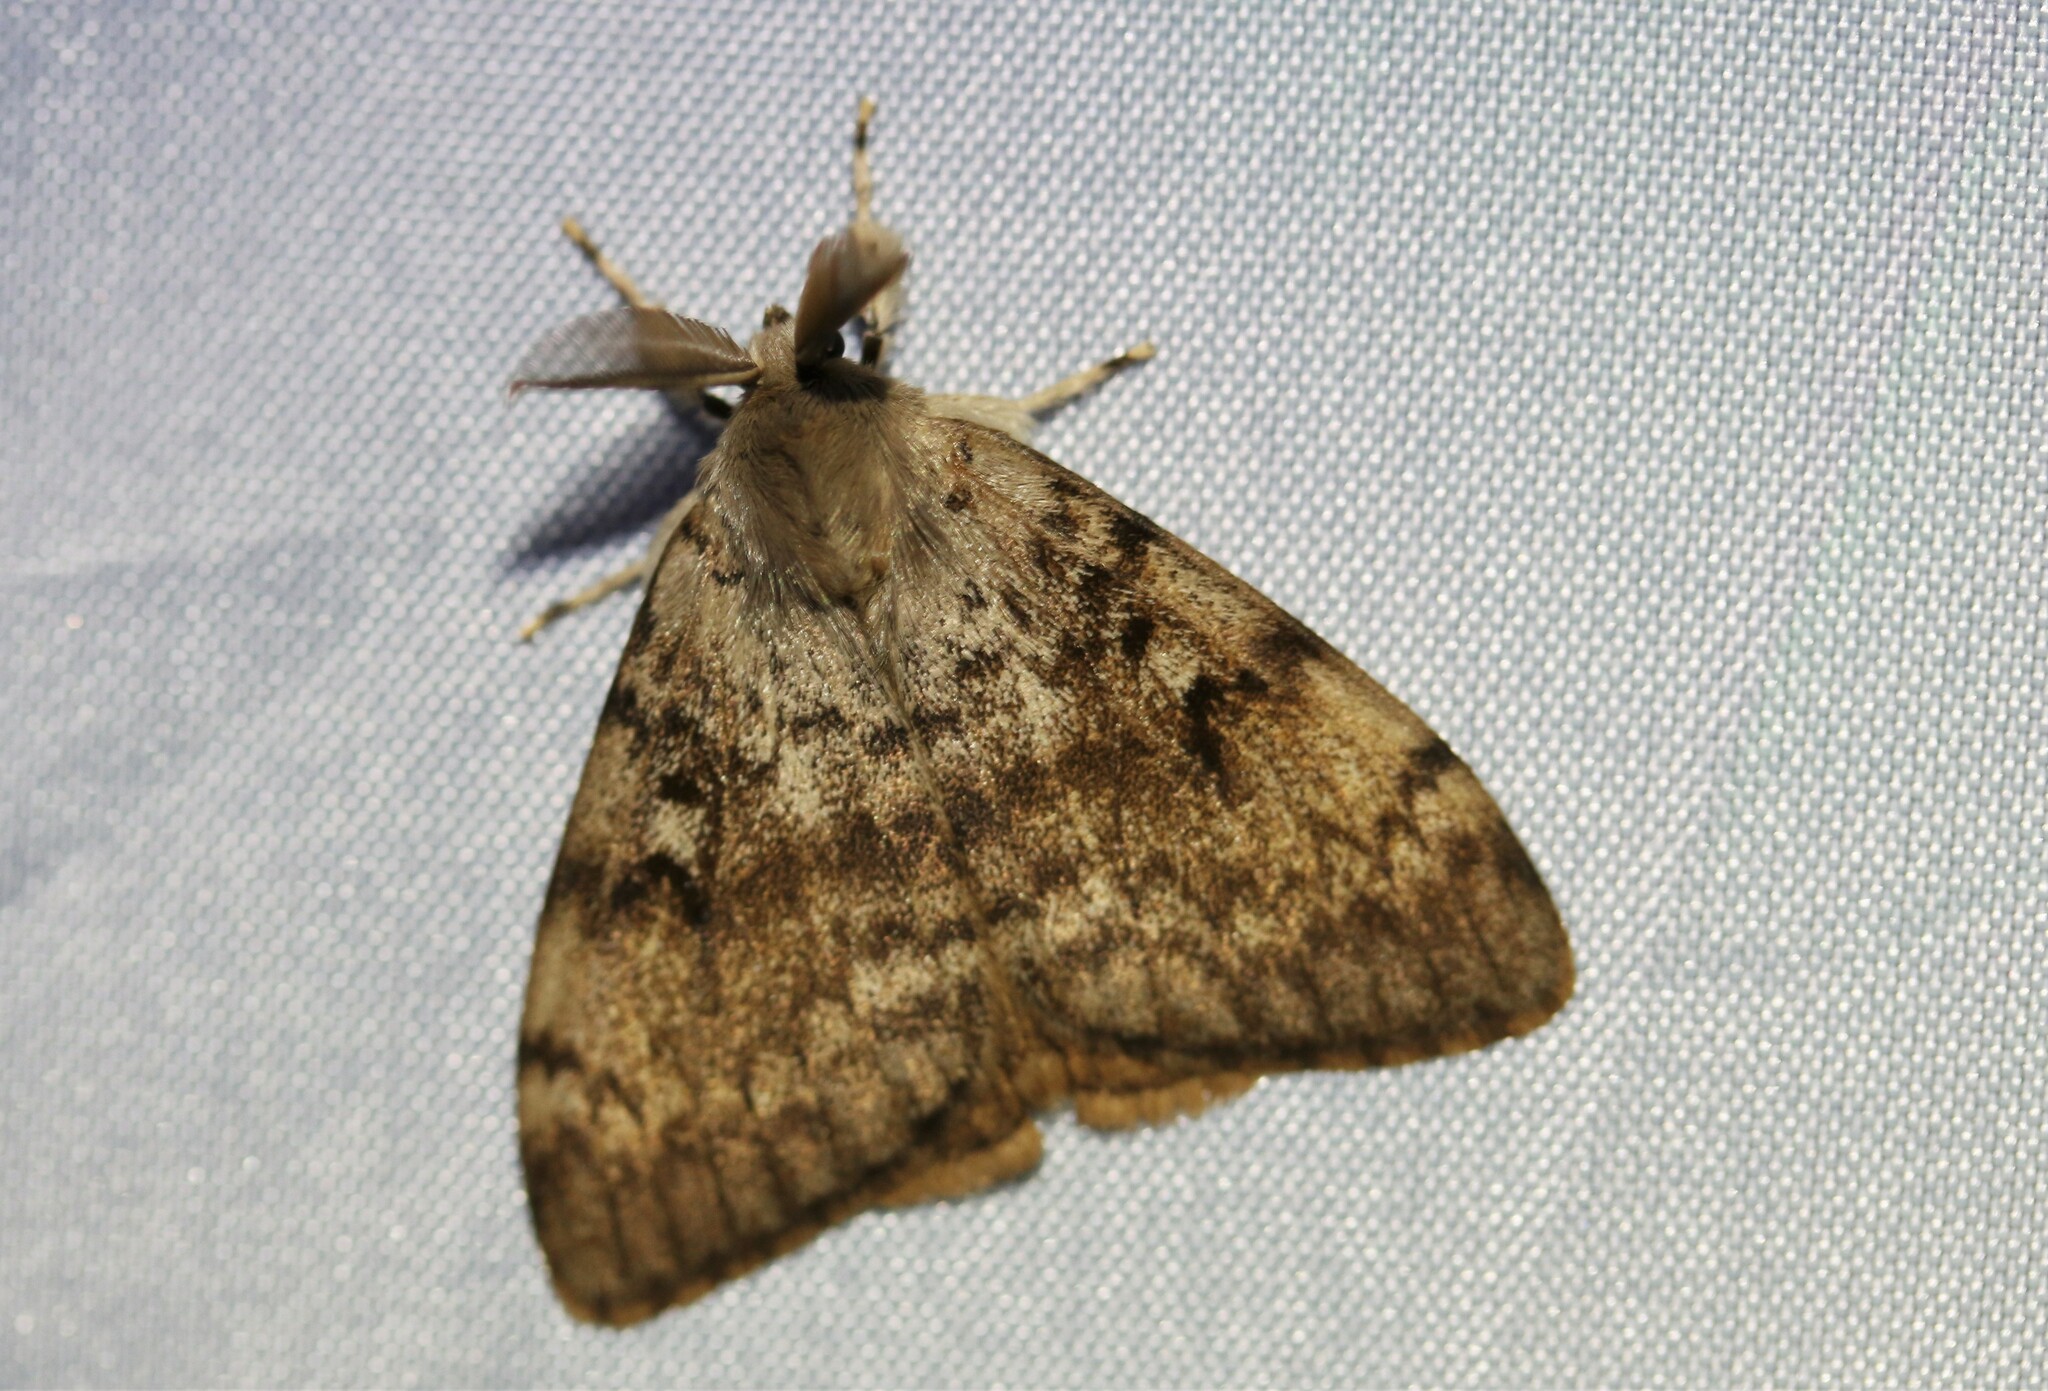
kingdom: Animalia
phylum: Arthropoda
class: Insecta
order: Lepidoptera
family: Erebidae
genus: Lymantria
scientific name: Lymantria dispar
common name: Gypsy moth
